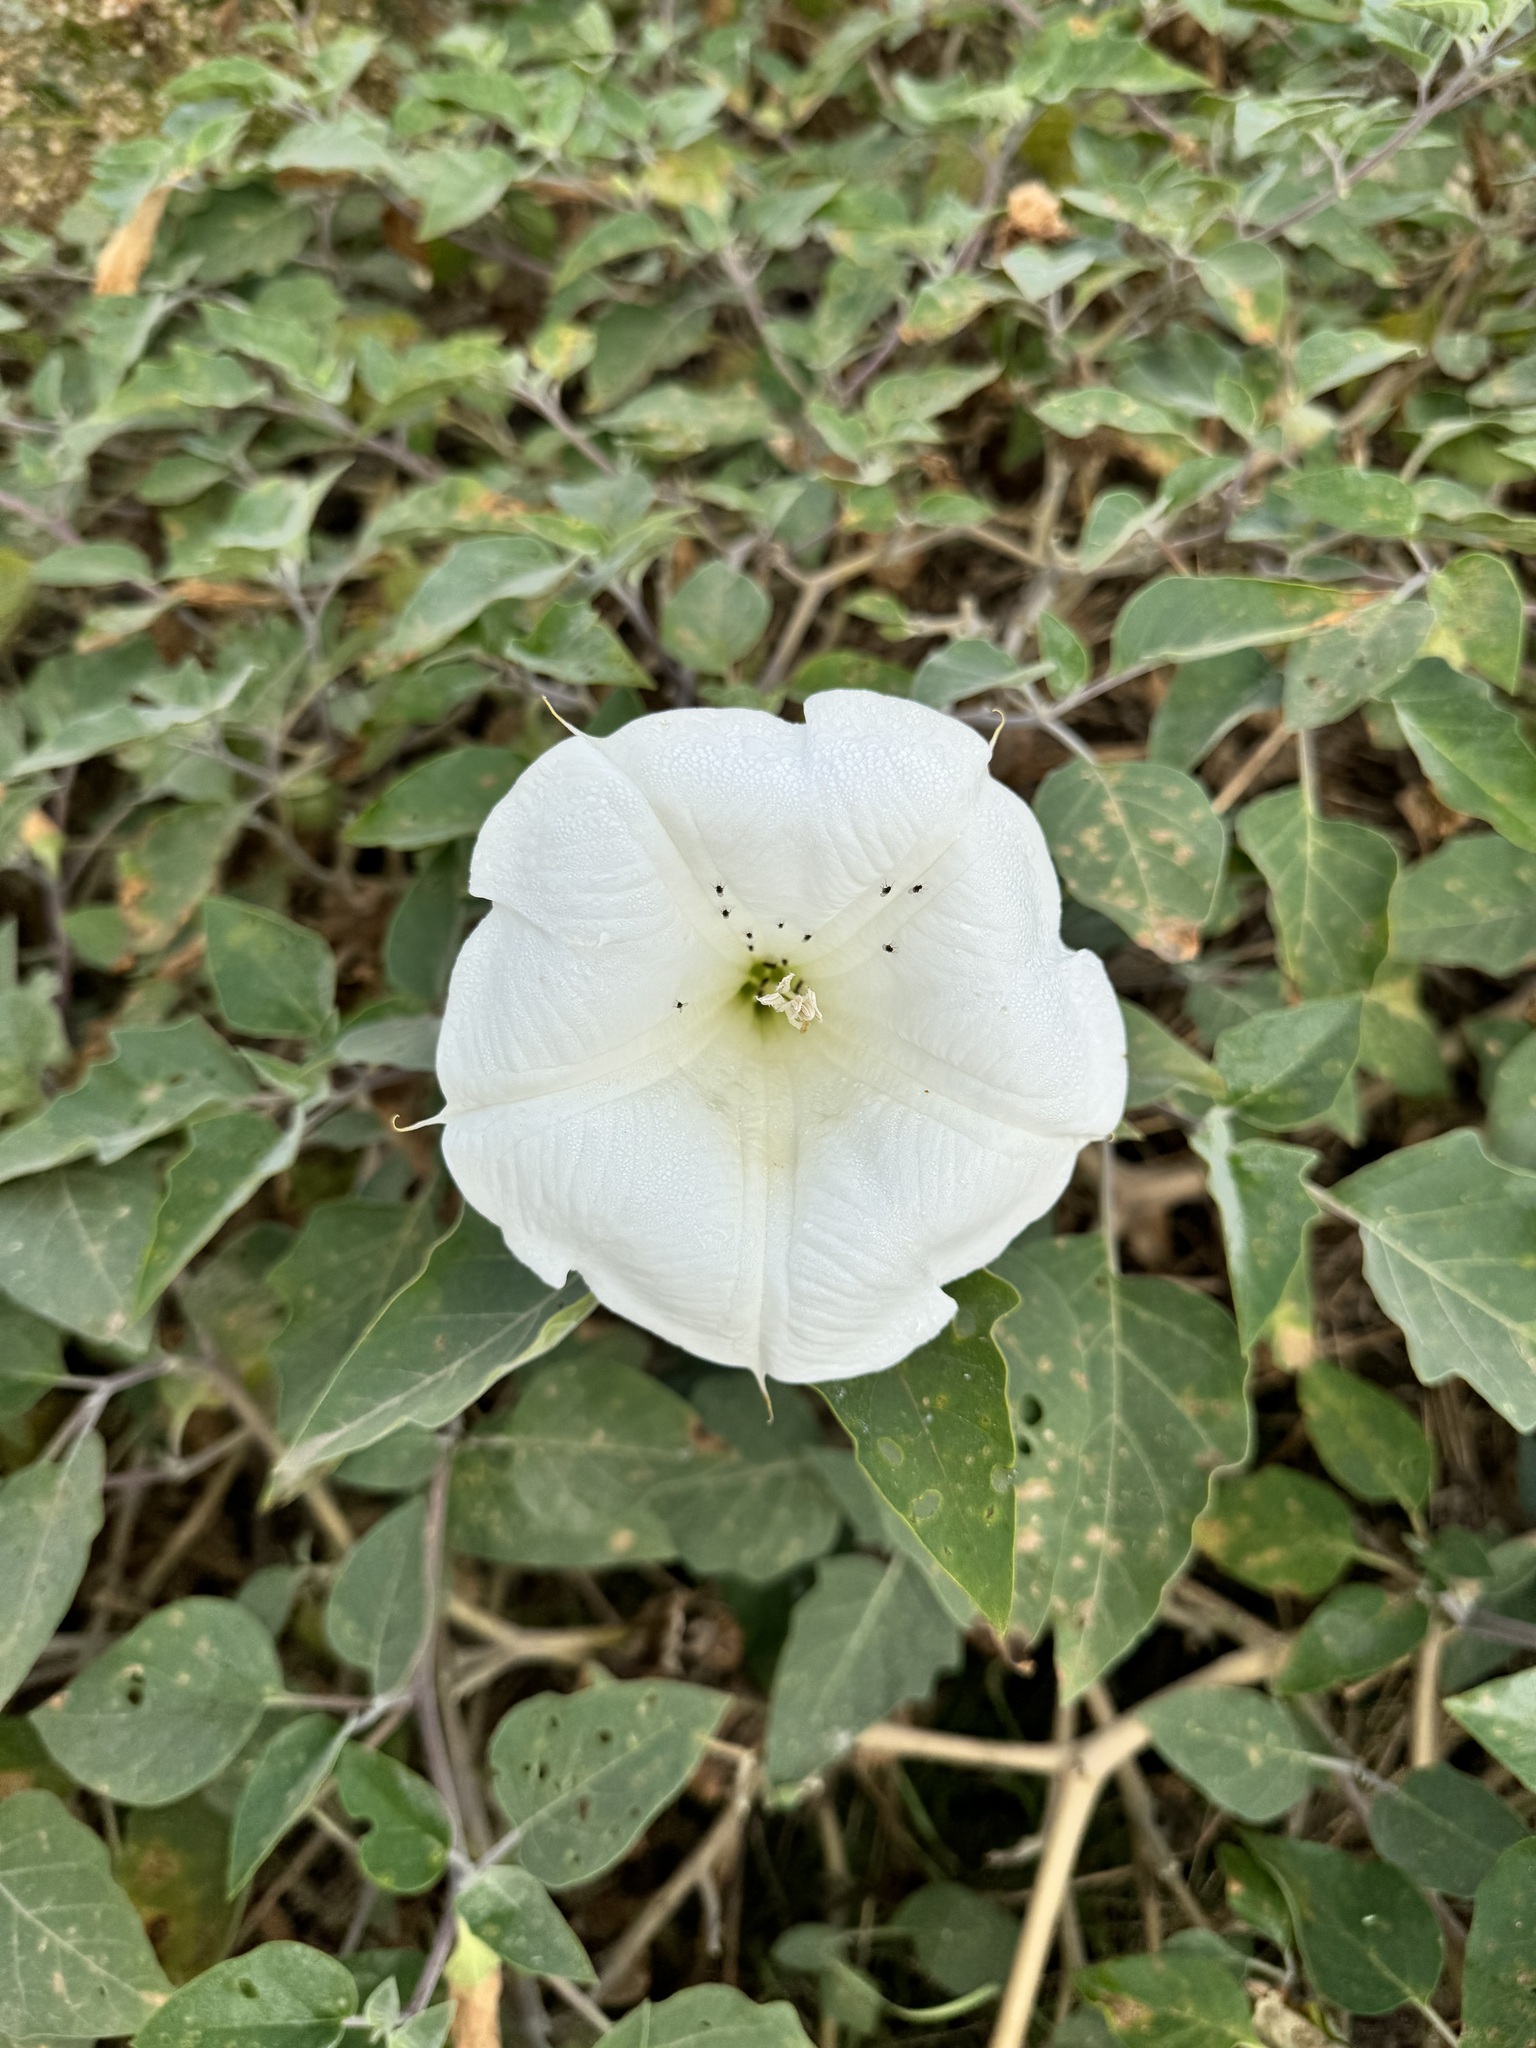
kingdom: Plantae
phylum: Tracheophyta
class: Magnoliopsida
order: Solanales
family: Solanaceae
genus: Datura
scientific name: Datura wrightii
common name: Sacred thorn-apple
